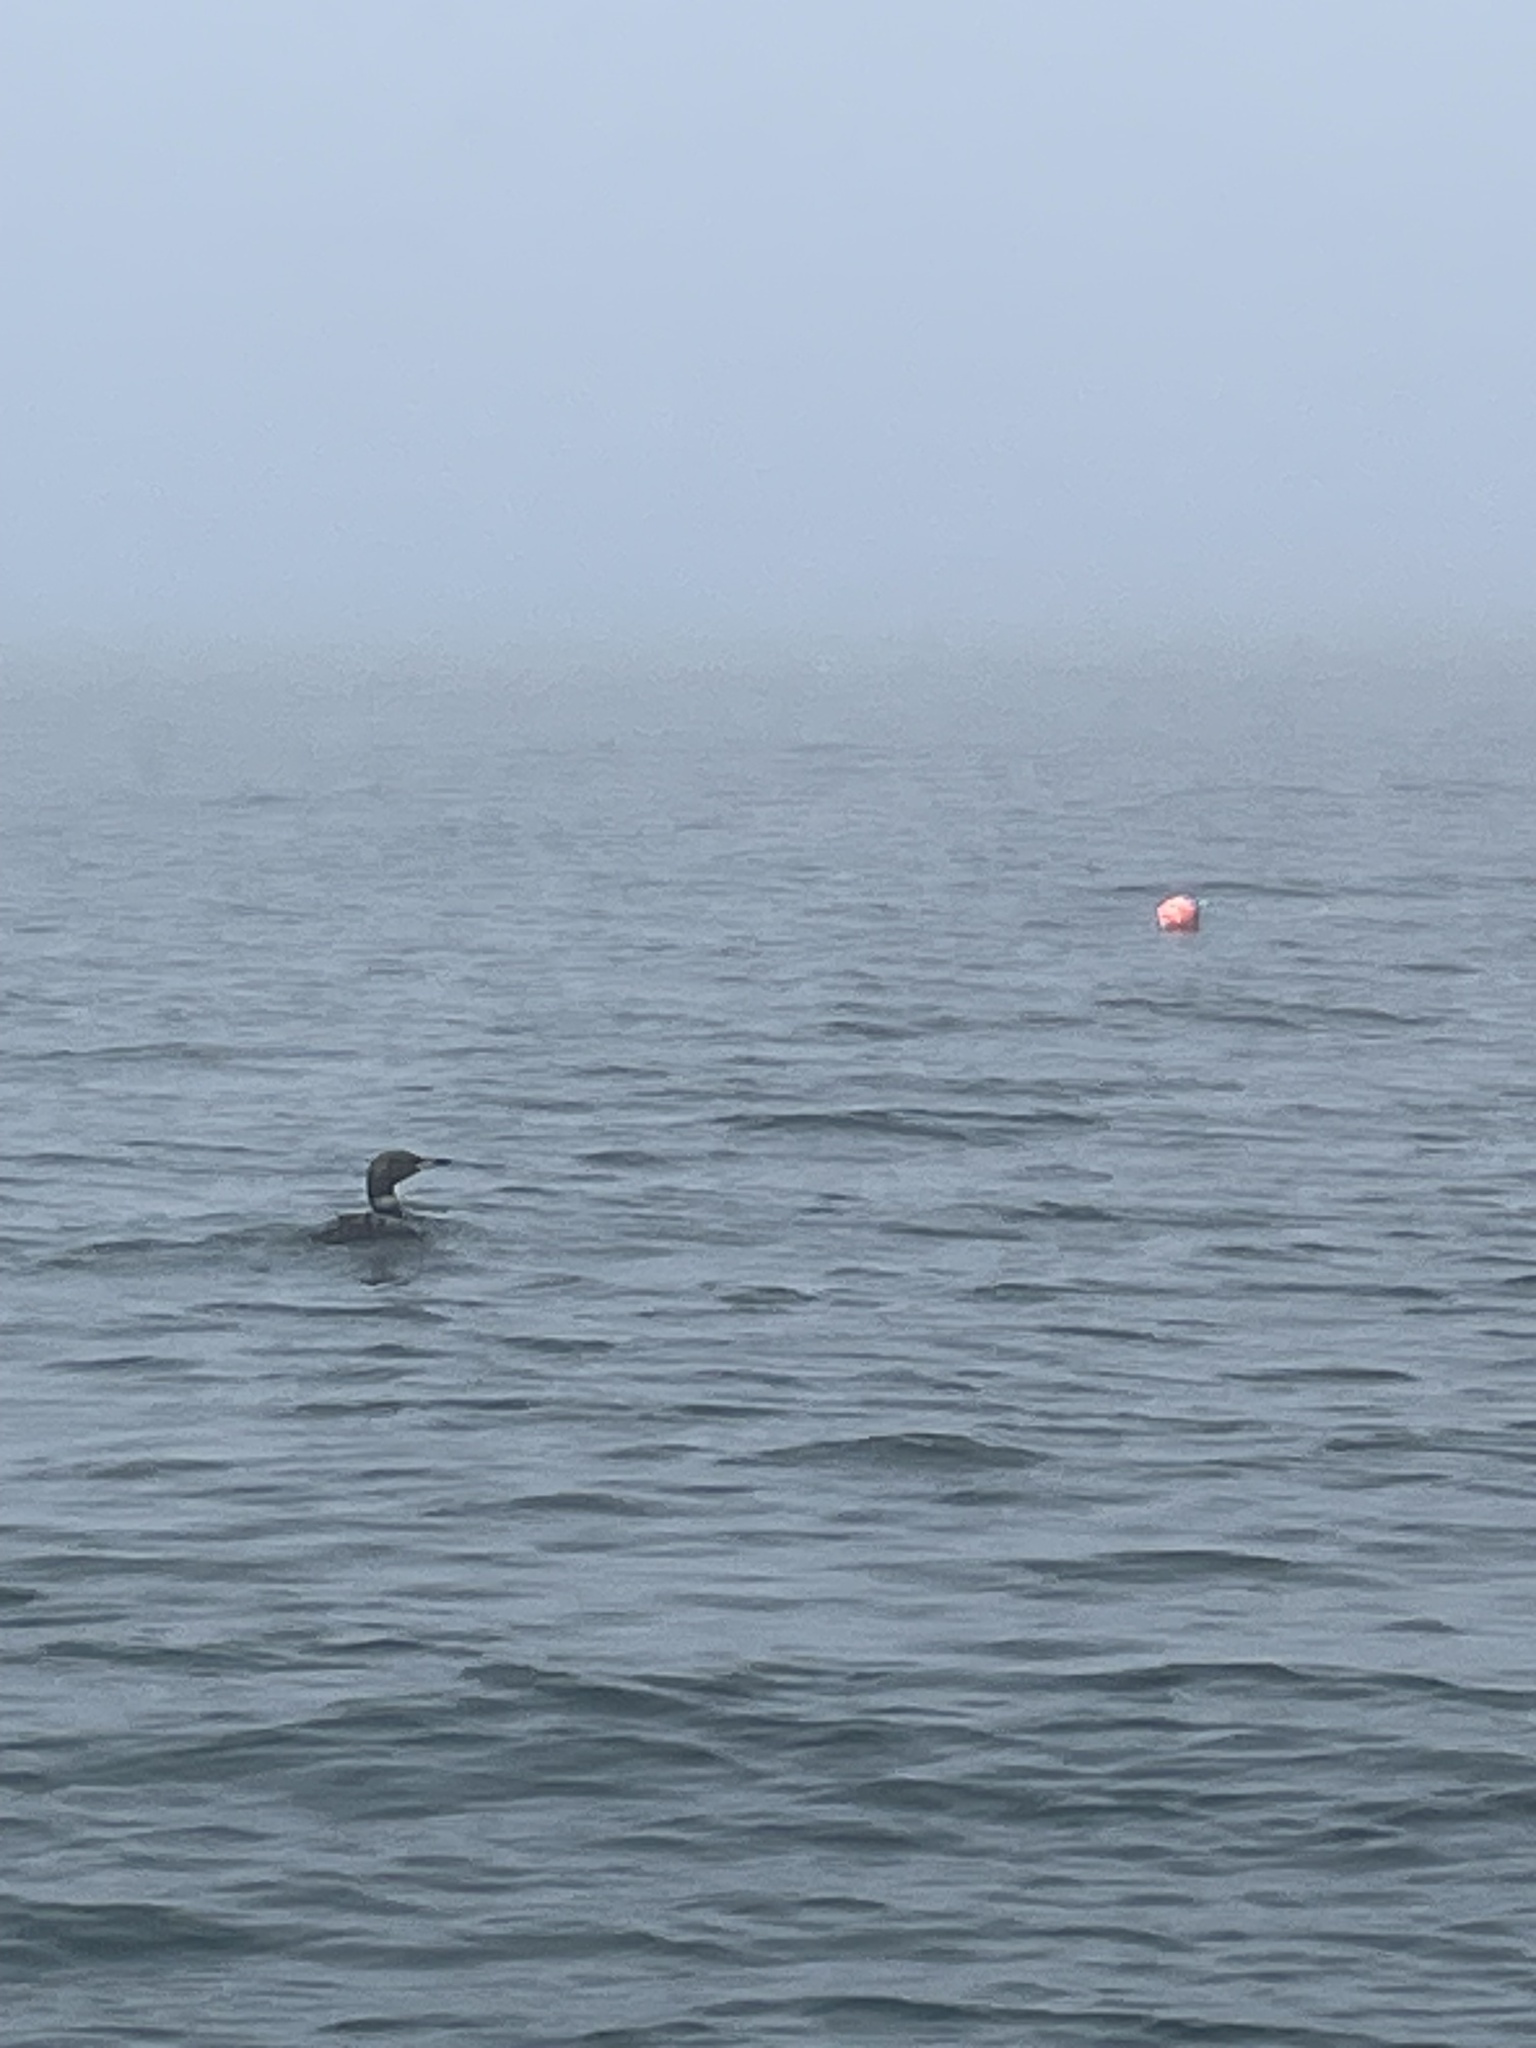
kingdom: Animalia
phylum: Chordata
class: Aves
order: Gaviiformes
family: Gaviidae
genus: Gavia
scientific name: Gavia immer
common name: Common loon
